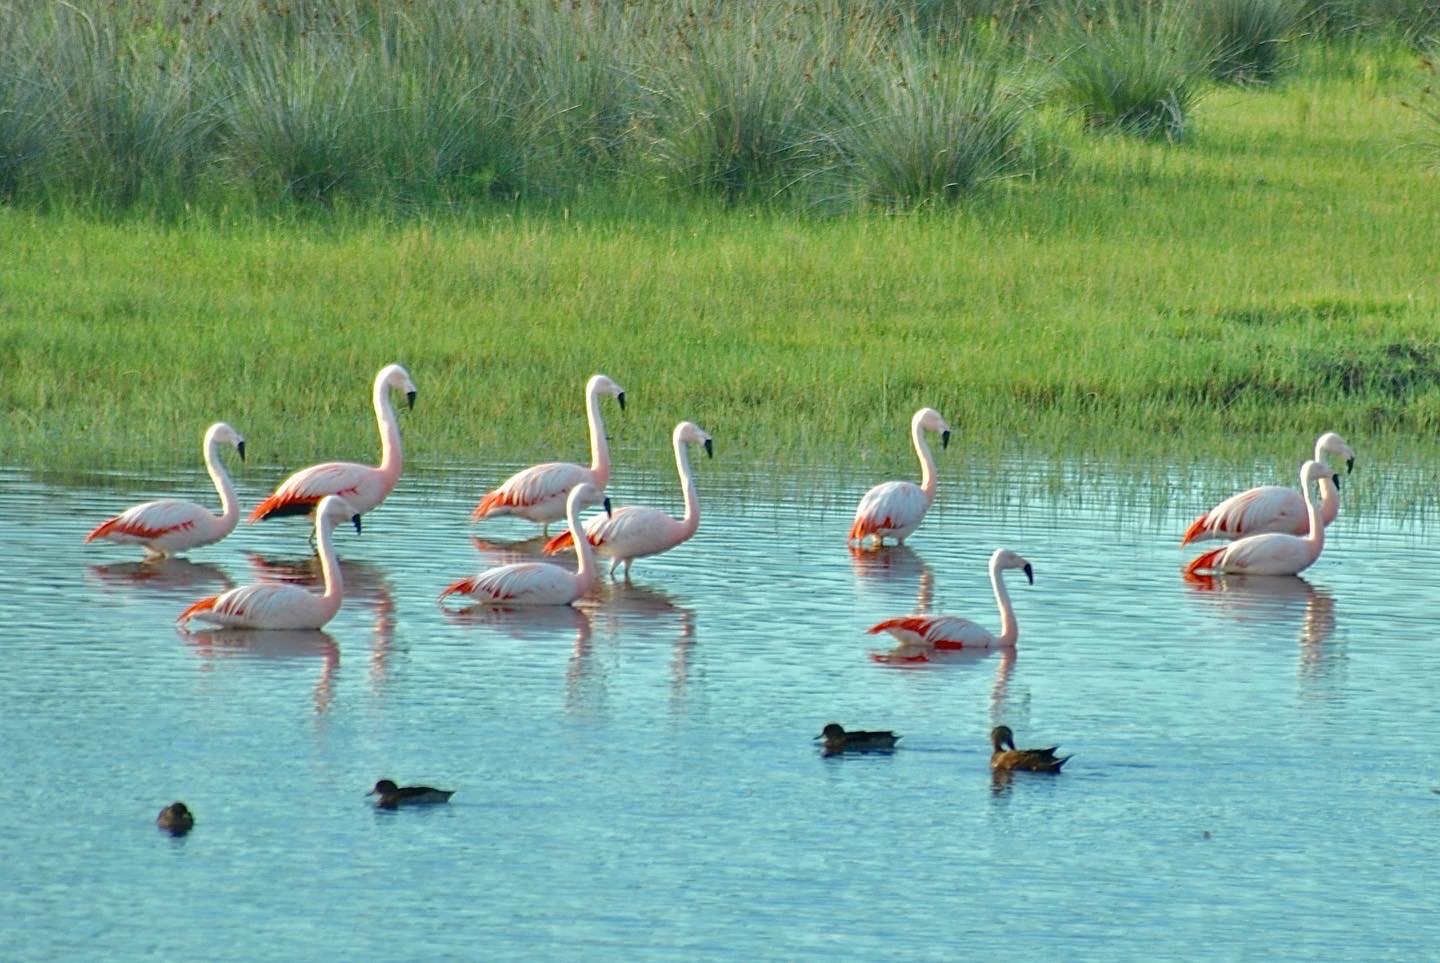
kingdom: Animalia
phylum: Chordata
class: Aves
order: Phoenicopteriformes
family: Phoenicopteridae
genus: Phoenicopterus
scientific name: Phoenicopterus chilensis
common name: Chilean flamingo
